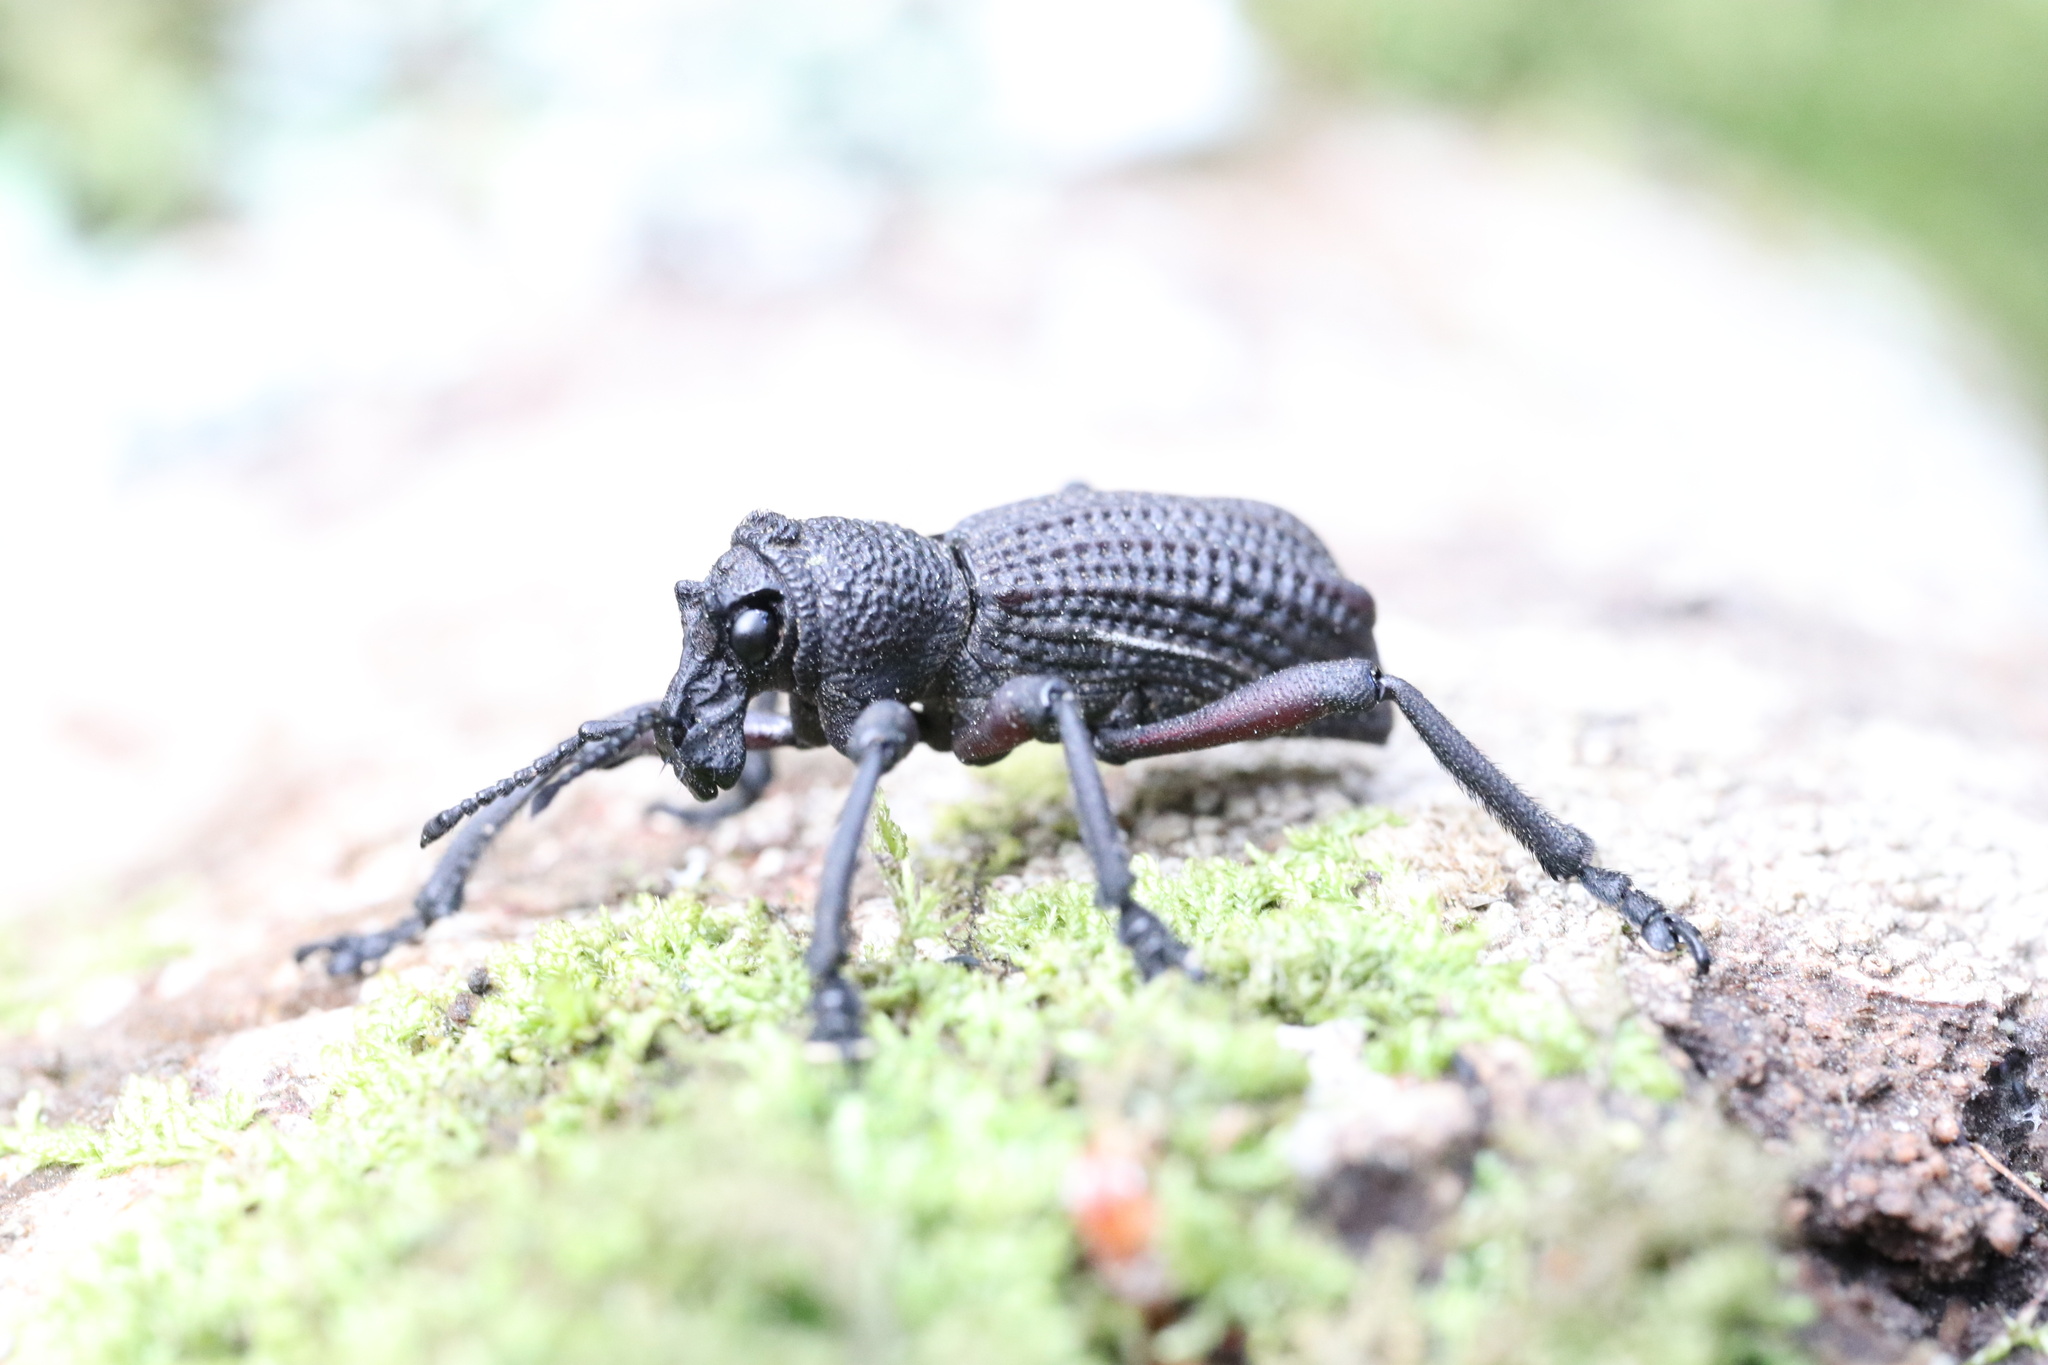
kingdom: Animalia
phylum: Arthropoda
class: Insecta
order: Coleoptera
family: Curculionidae
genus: Aegorhinus
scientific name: Aegorhinus
